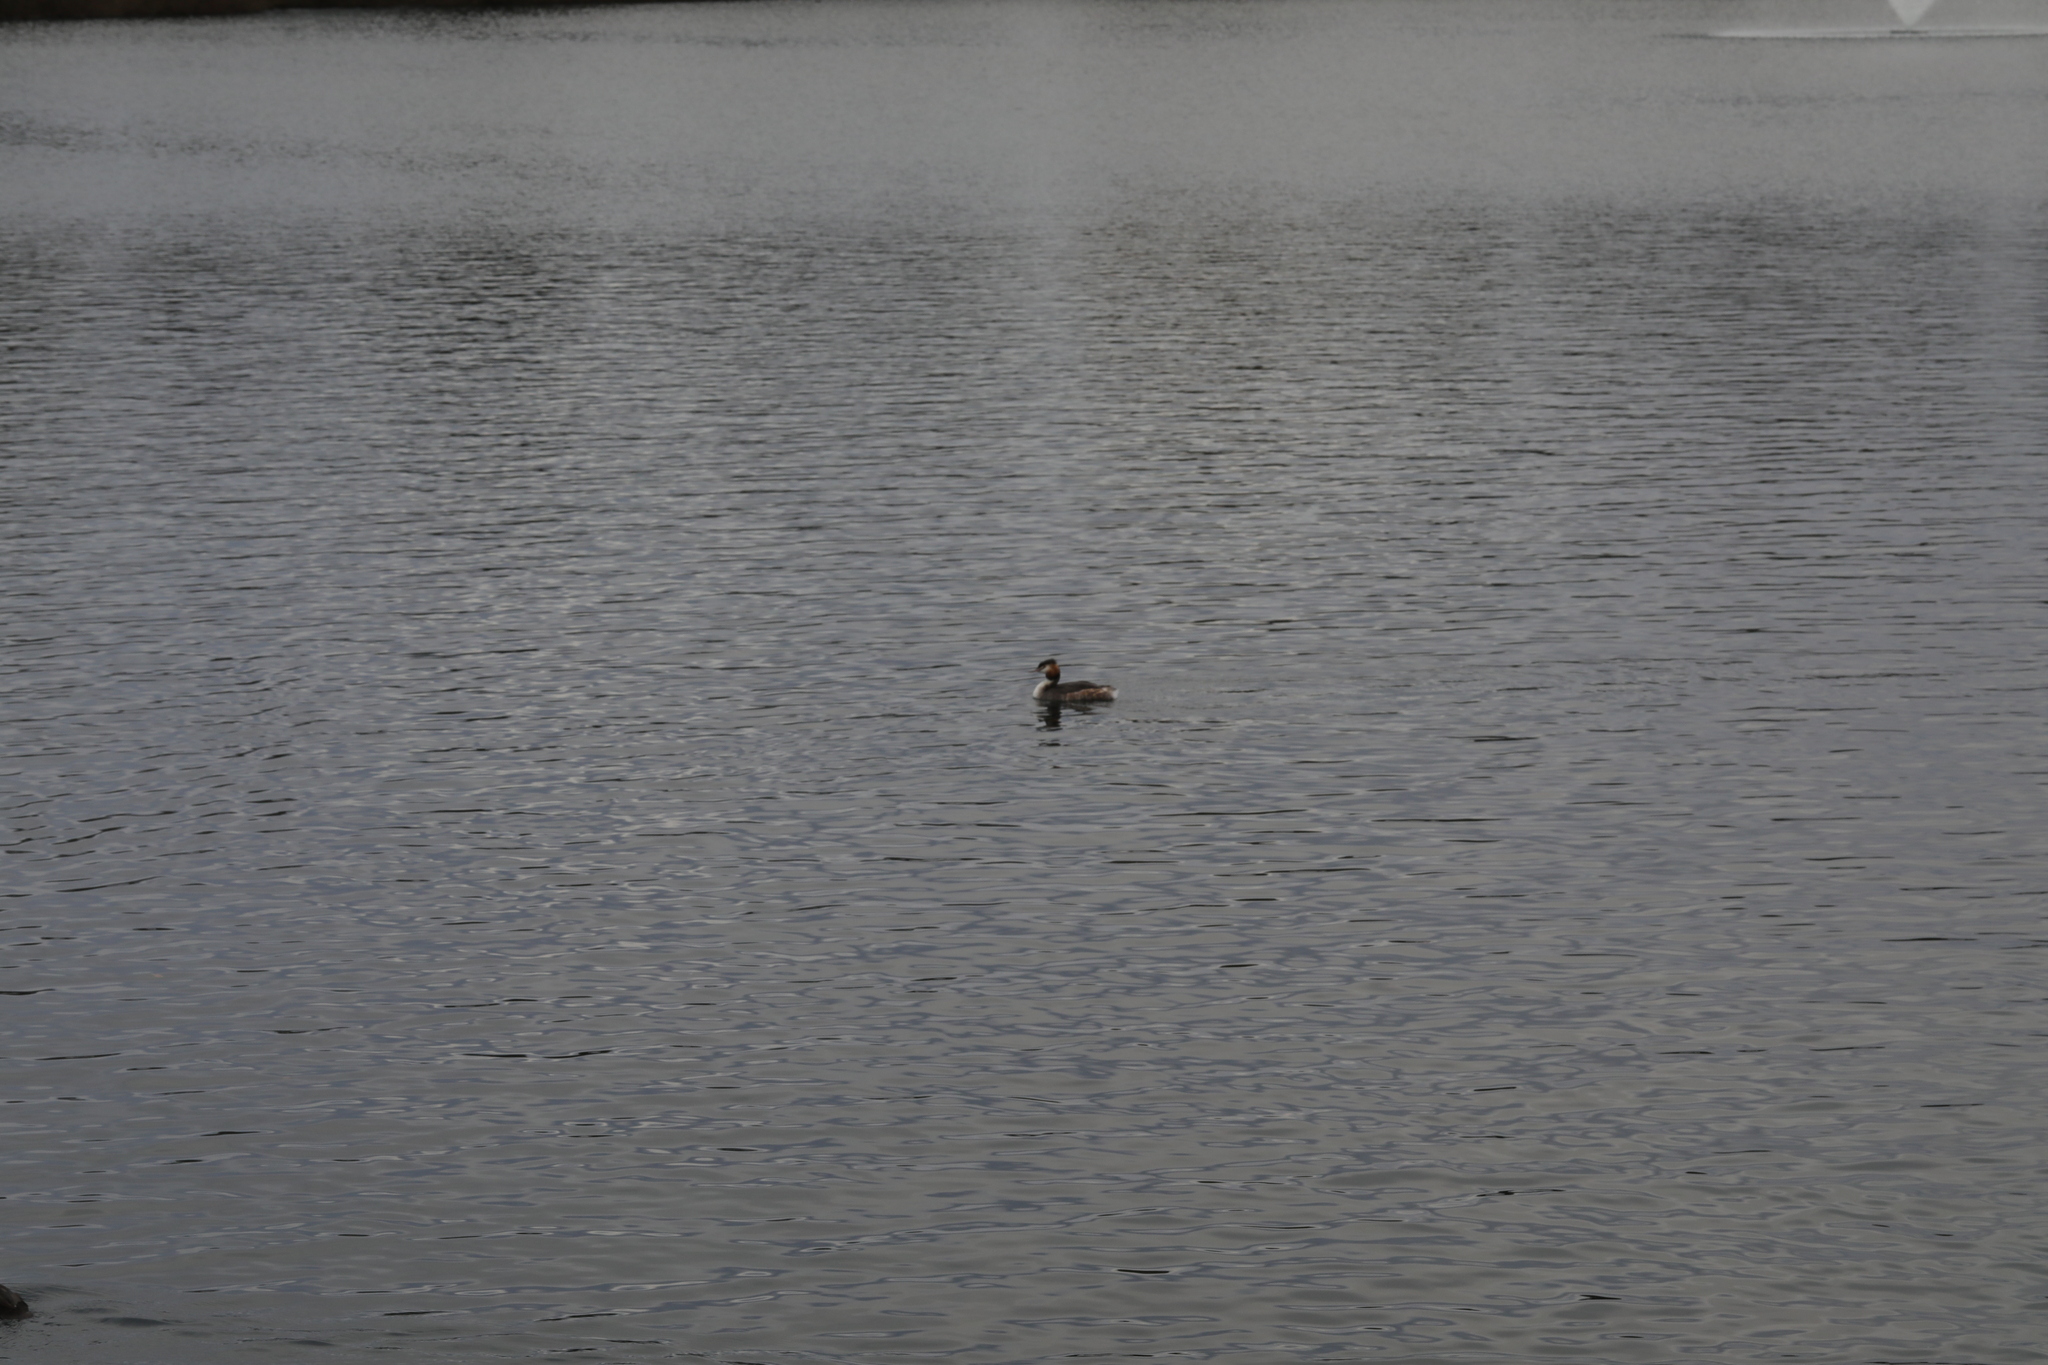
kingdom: Animalia
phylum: Chordata
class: Aves
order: Podicipediformes
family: Podicipedidae
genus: Podiceps
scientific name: Podiceps cristatus
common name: Great crested grebe
